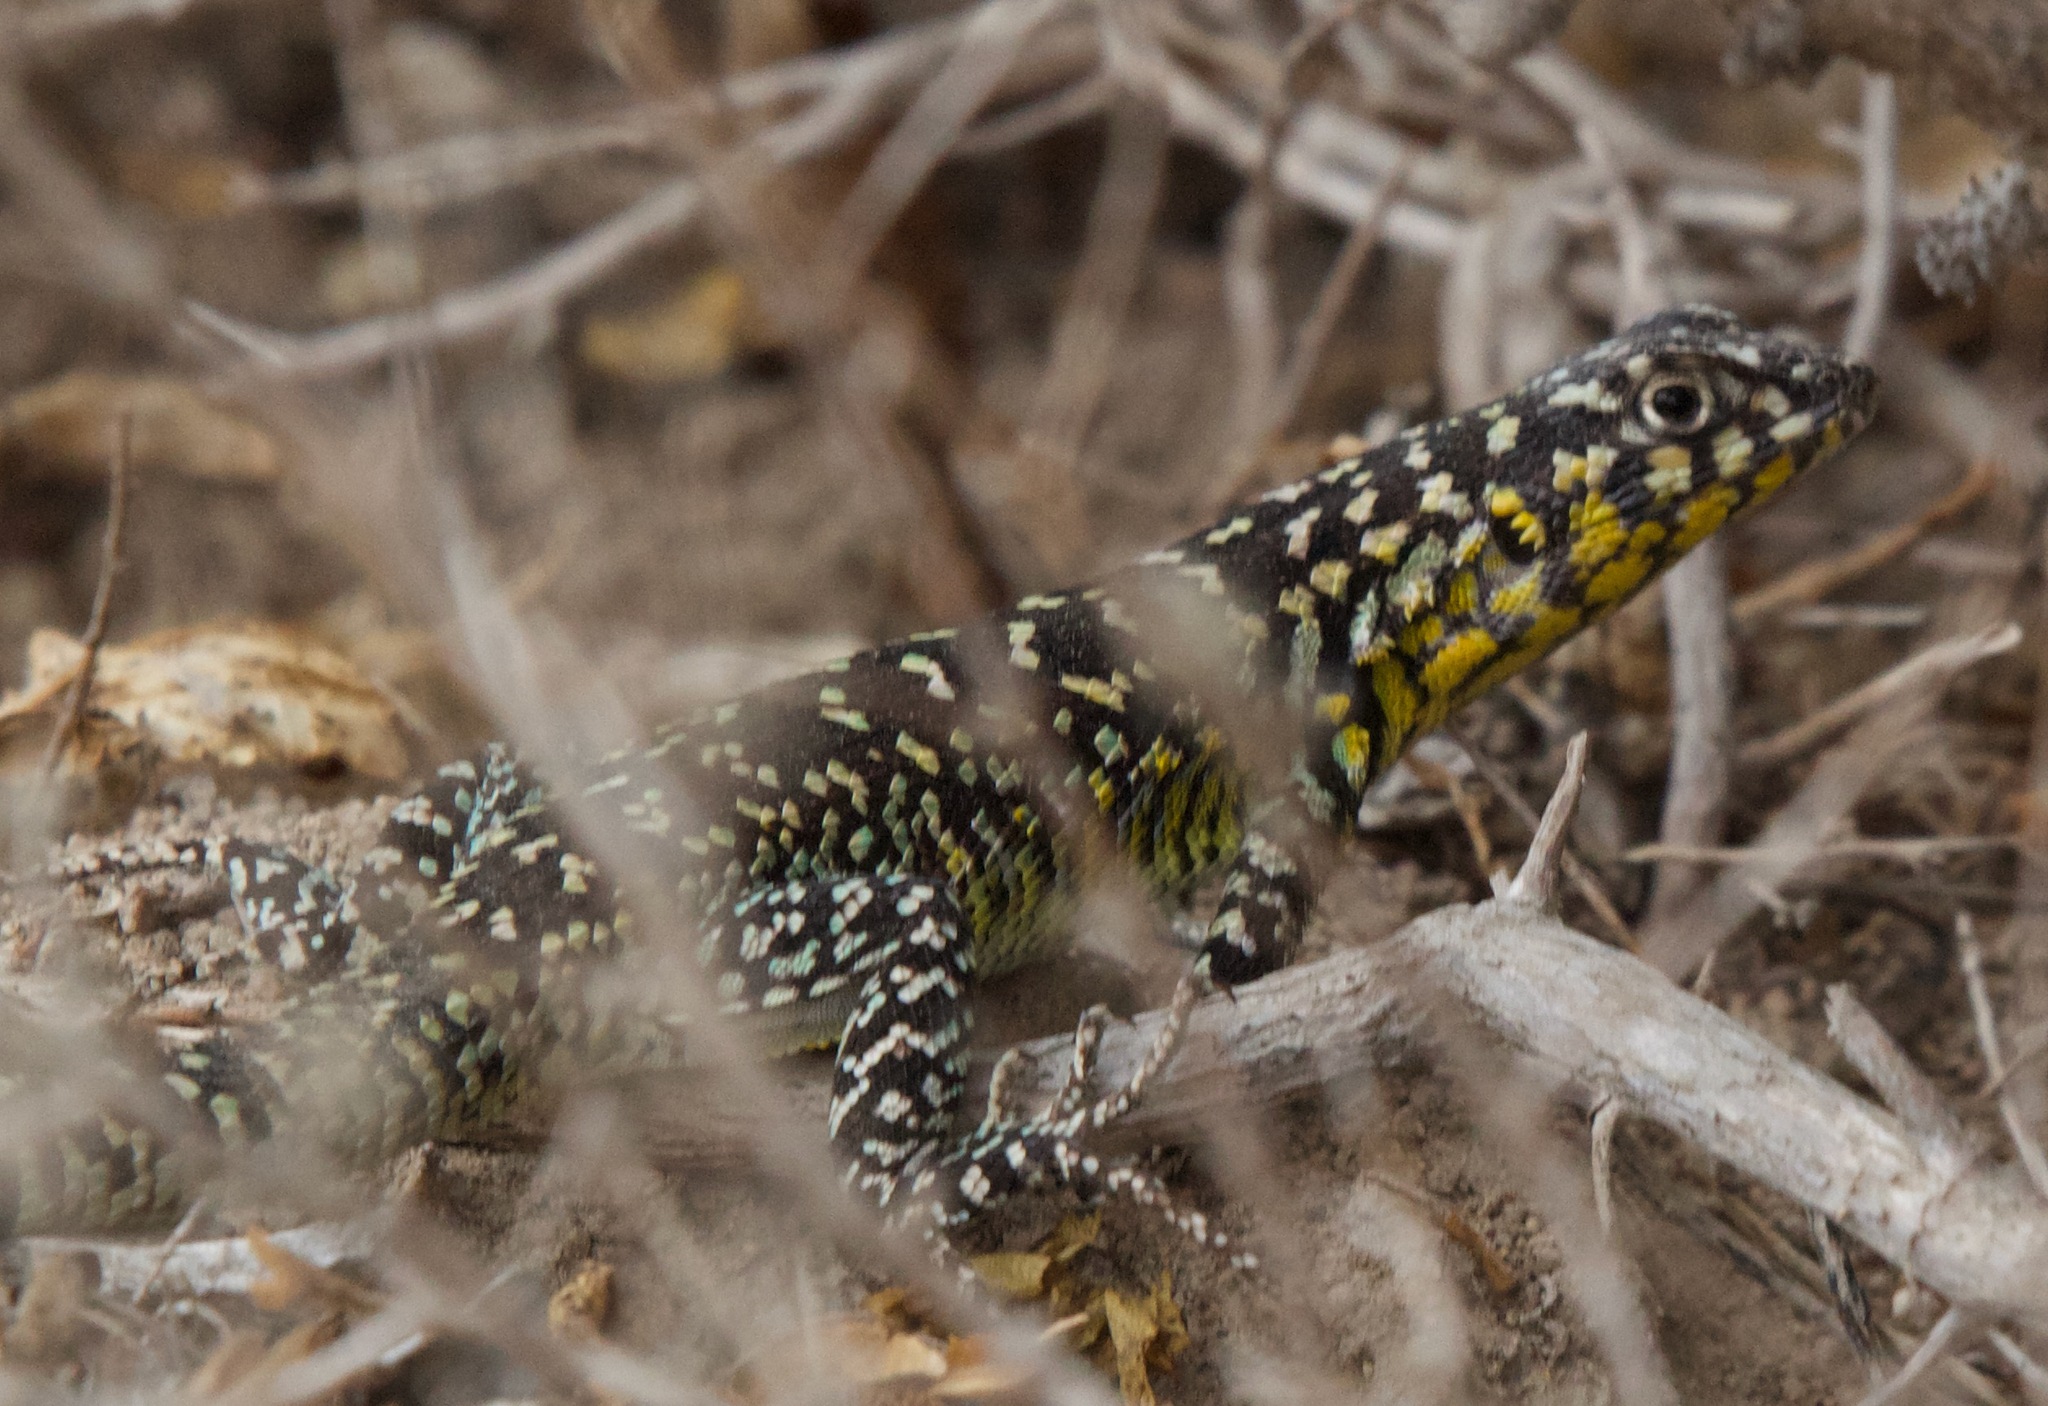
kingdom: Animalia
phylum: Chordata
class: Squamata
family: Liolaemidae
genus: Liolaemus
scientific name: Liolaemus zapallarensis
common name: Zapallaren tree iguana
